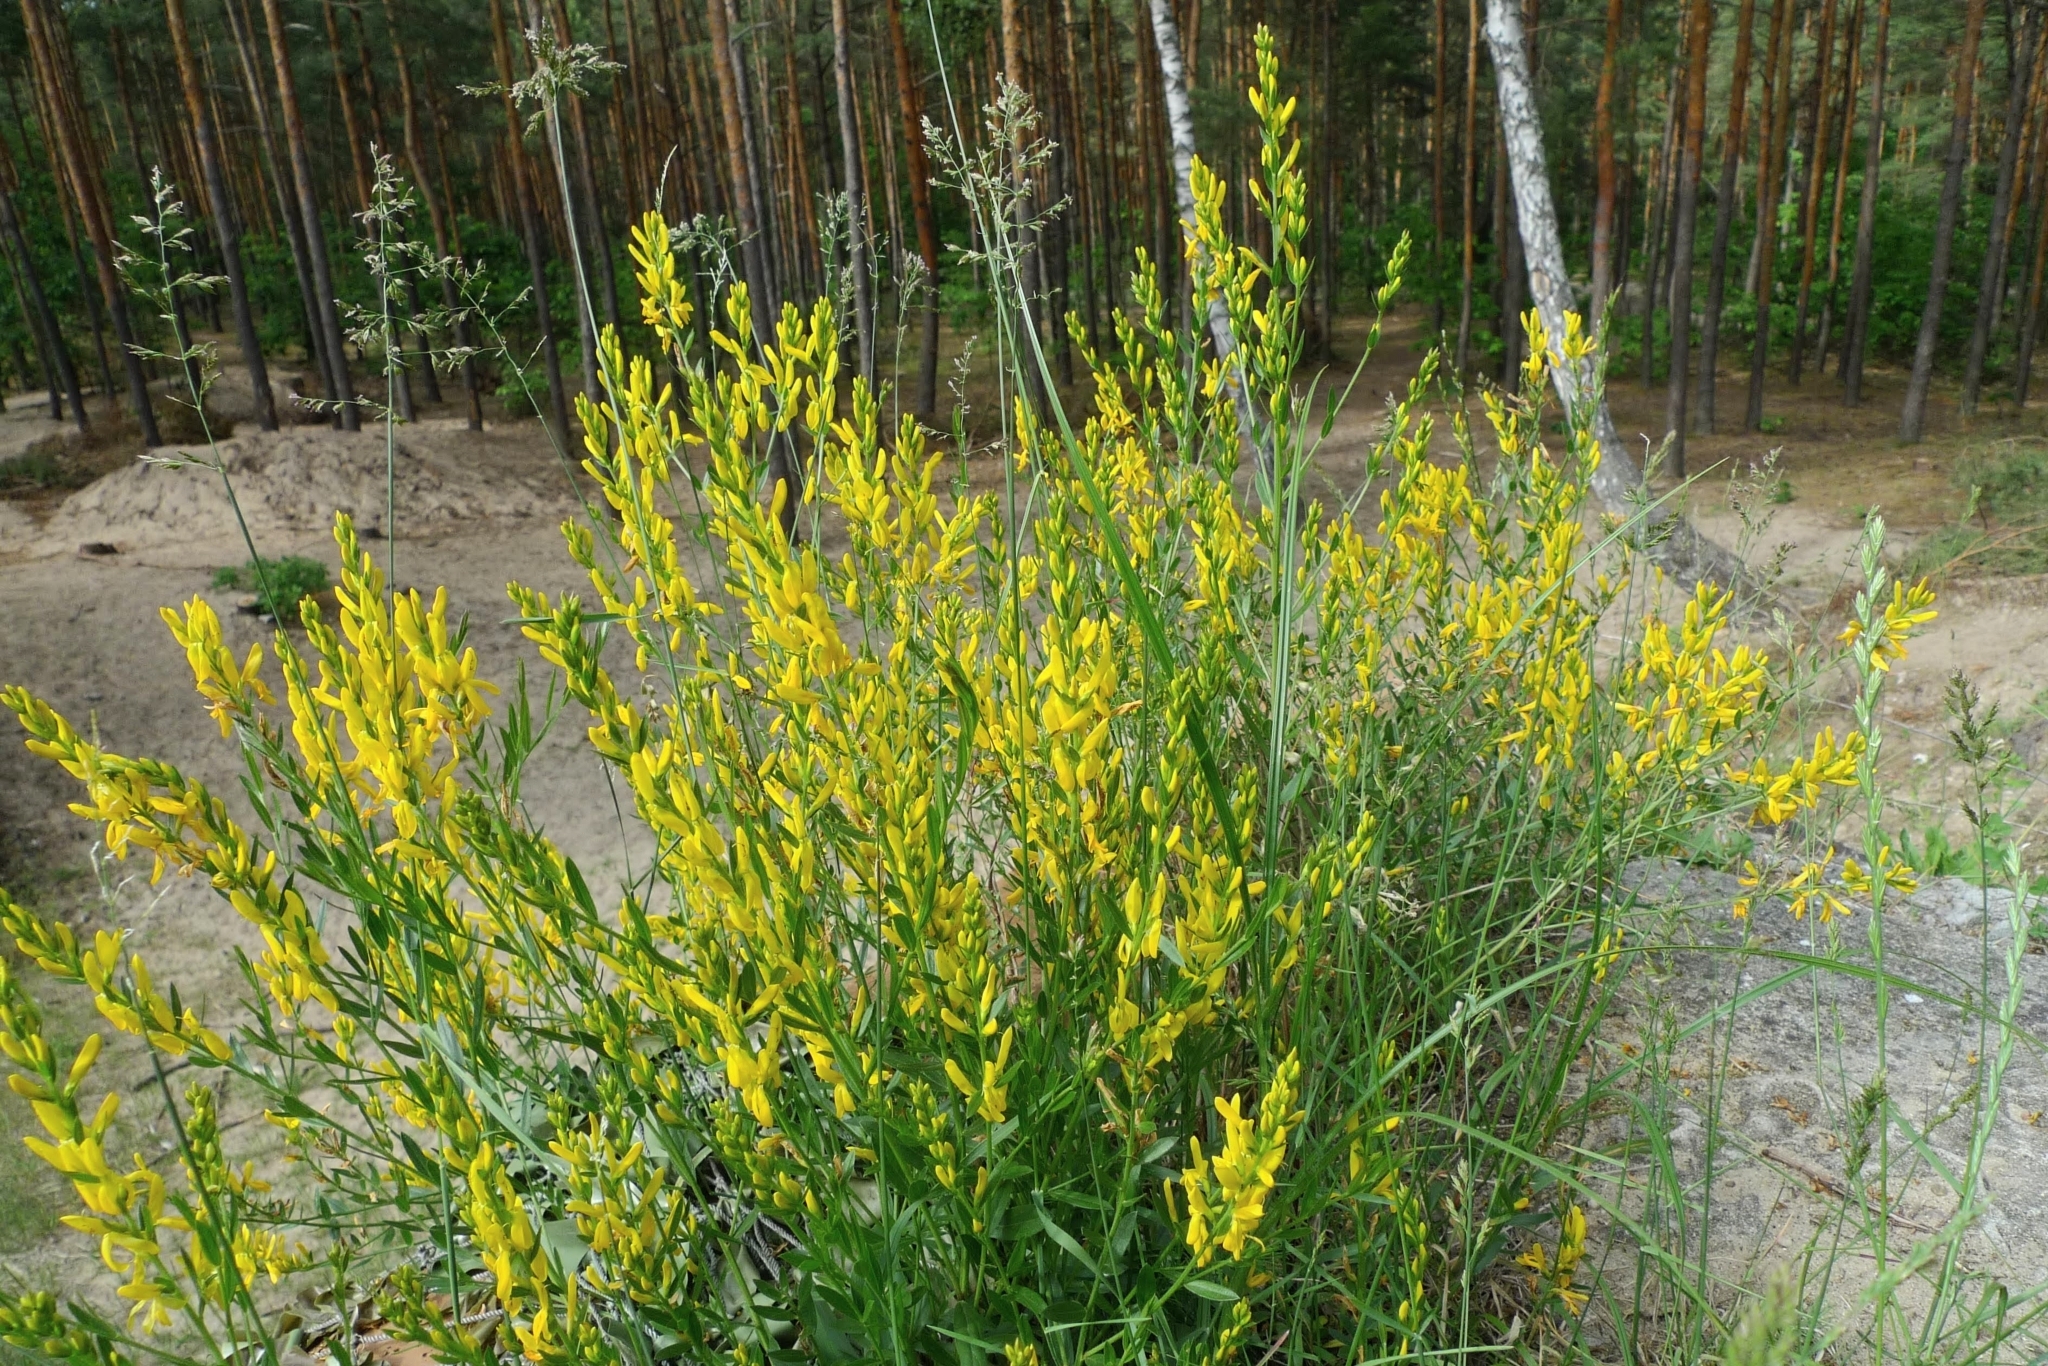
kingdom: Plantae
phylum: Tracheophyta
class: Magnoliopsida
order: Fabales
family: Fabaceae
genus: Genista
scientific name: Genista tinctoria
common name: Dyer's greenweed
